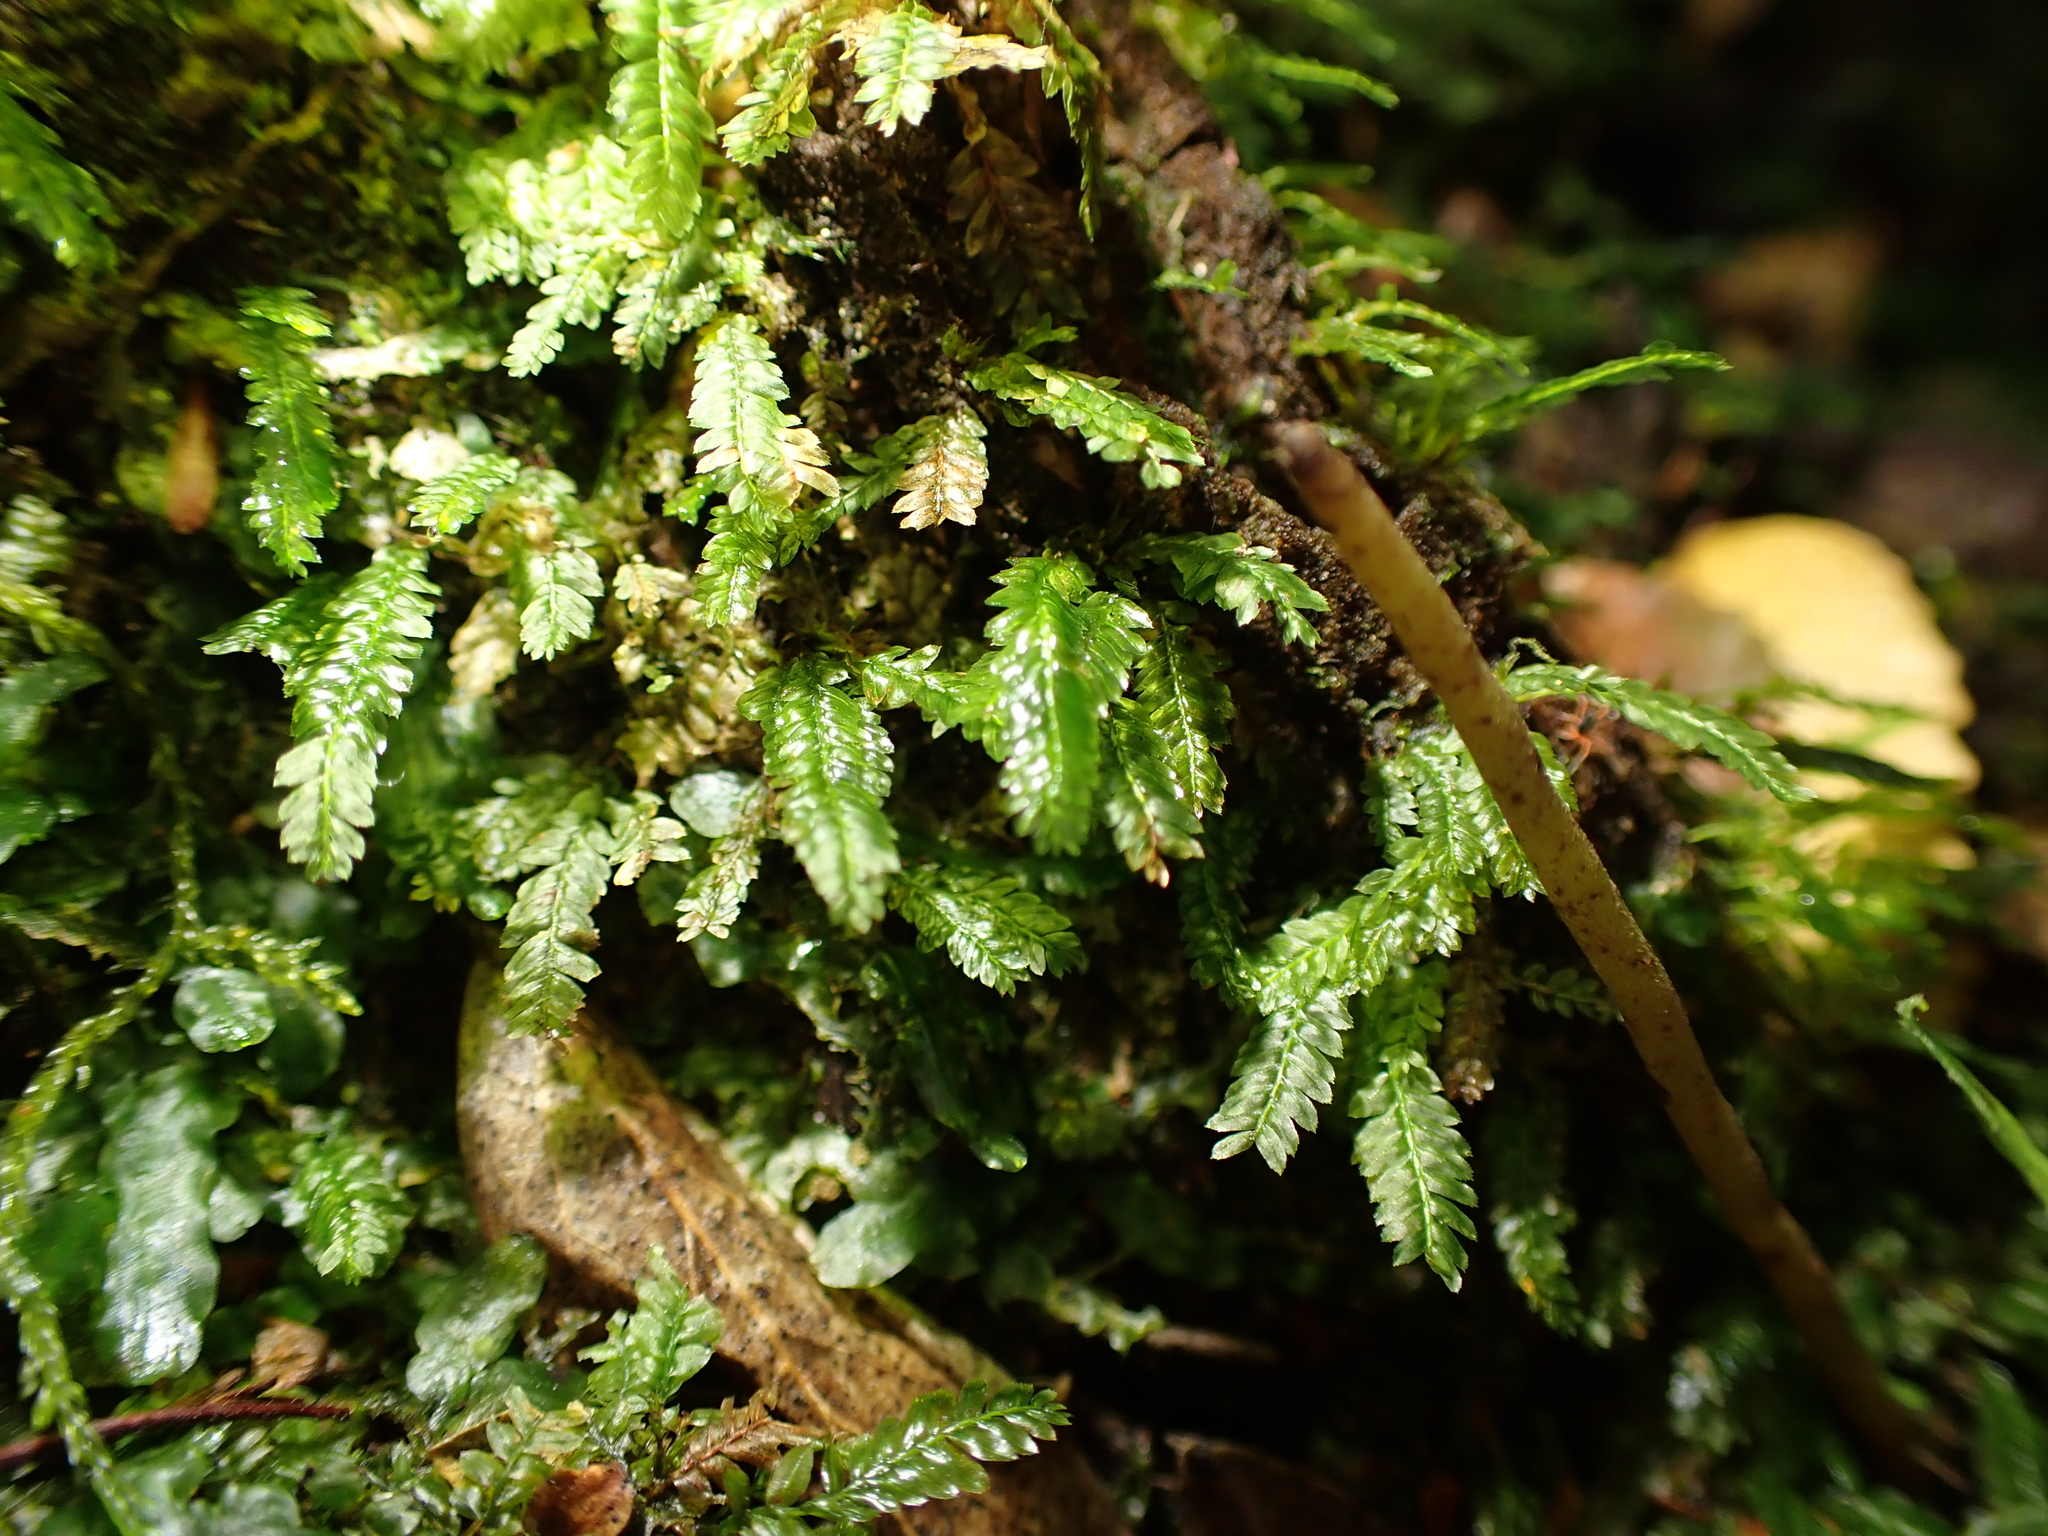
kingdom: Plantae
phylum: Bryophyta
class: Bryopsida
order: Rhizogoniales
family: Rhizogoniaceae
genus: Rhizogonium
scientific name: Rhizogonium distichum
